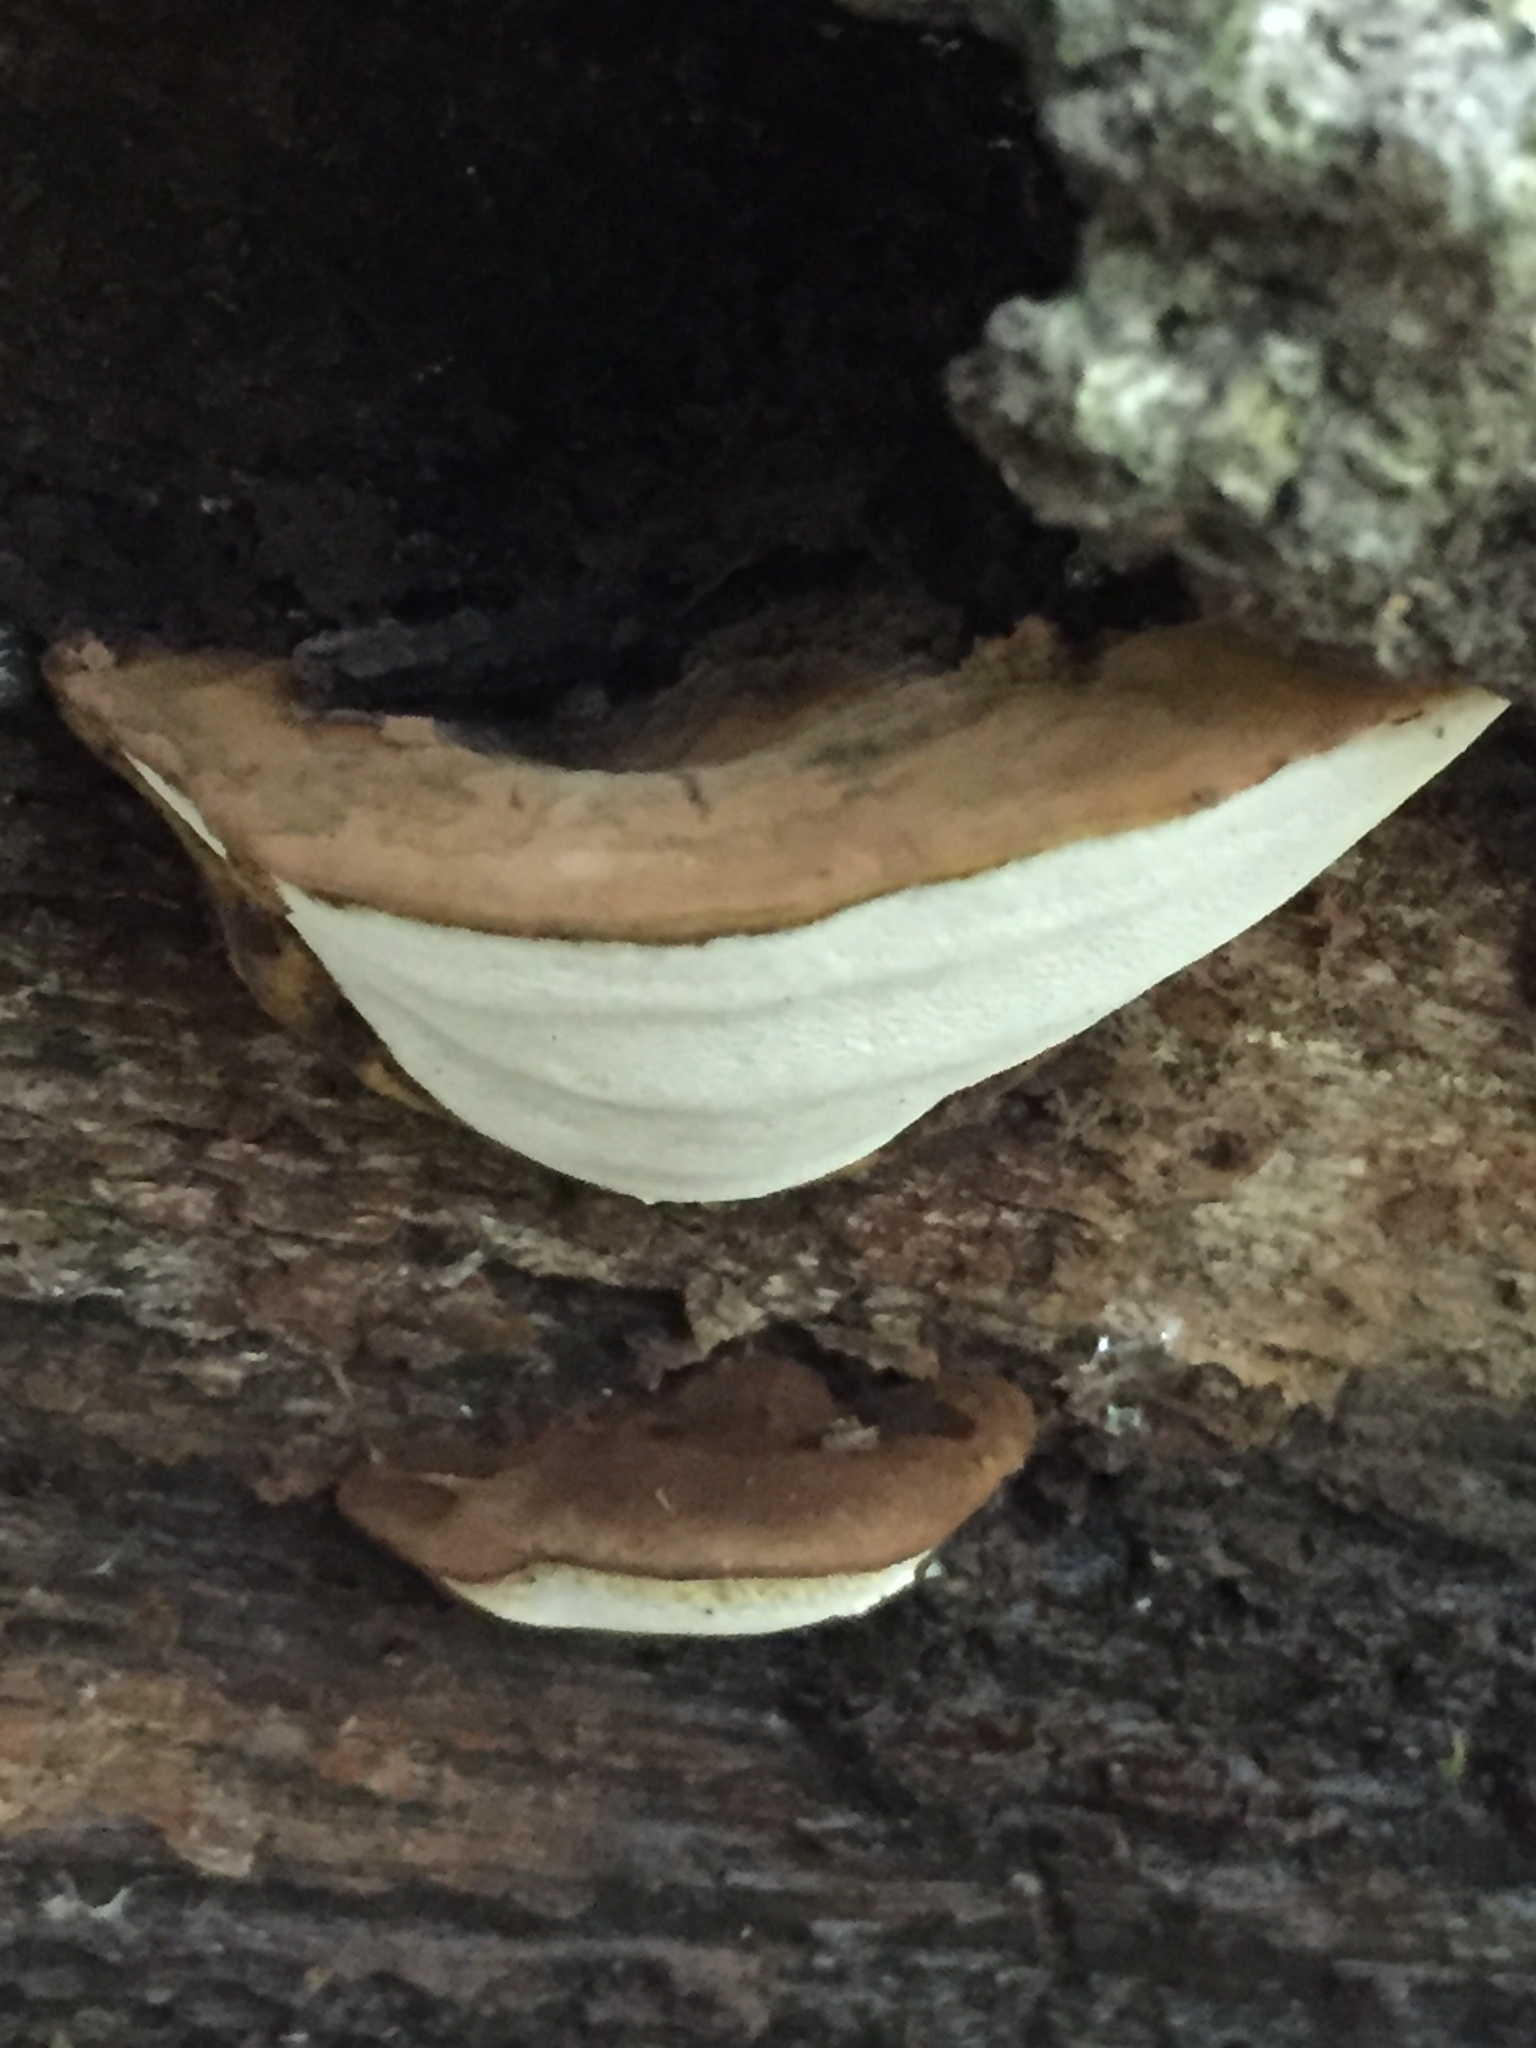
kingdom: Fungi
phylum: Basidiomycota
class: Agaricomycetes
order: Polyporales
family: Polyporaceae
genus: Ganoderma
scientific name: Ganoderma applanatum
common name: Artist's bracket
